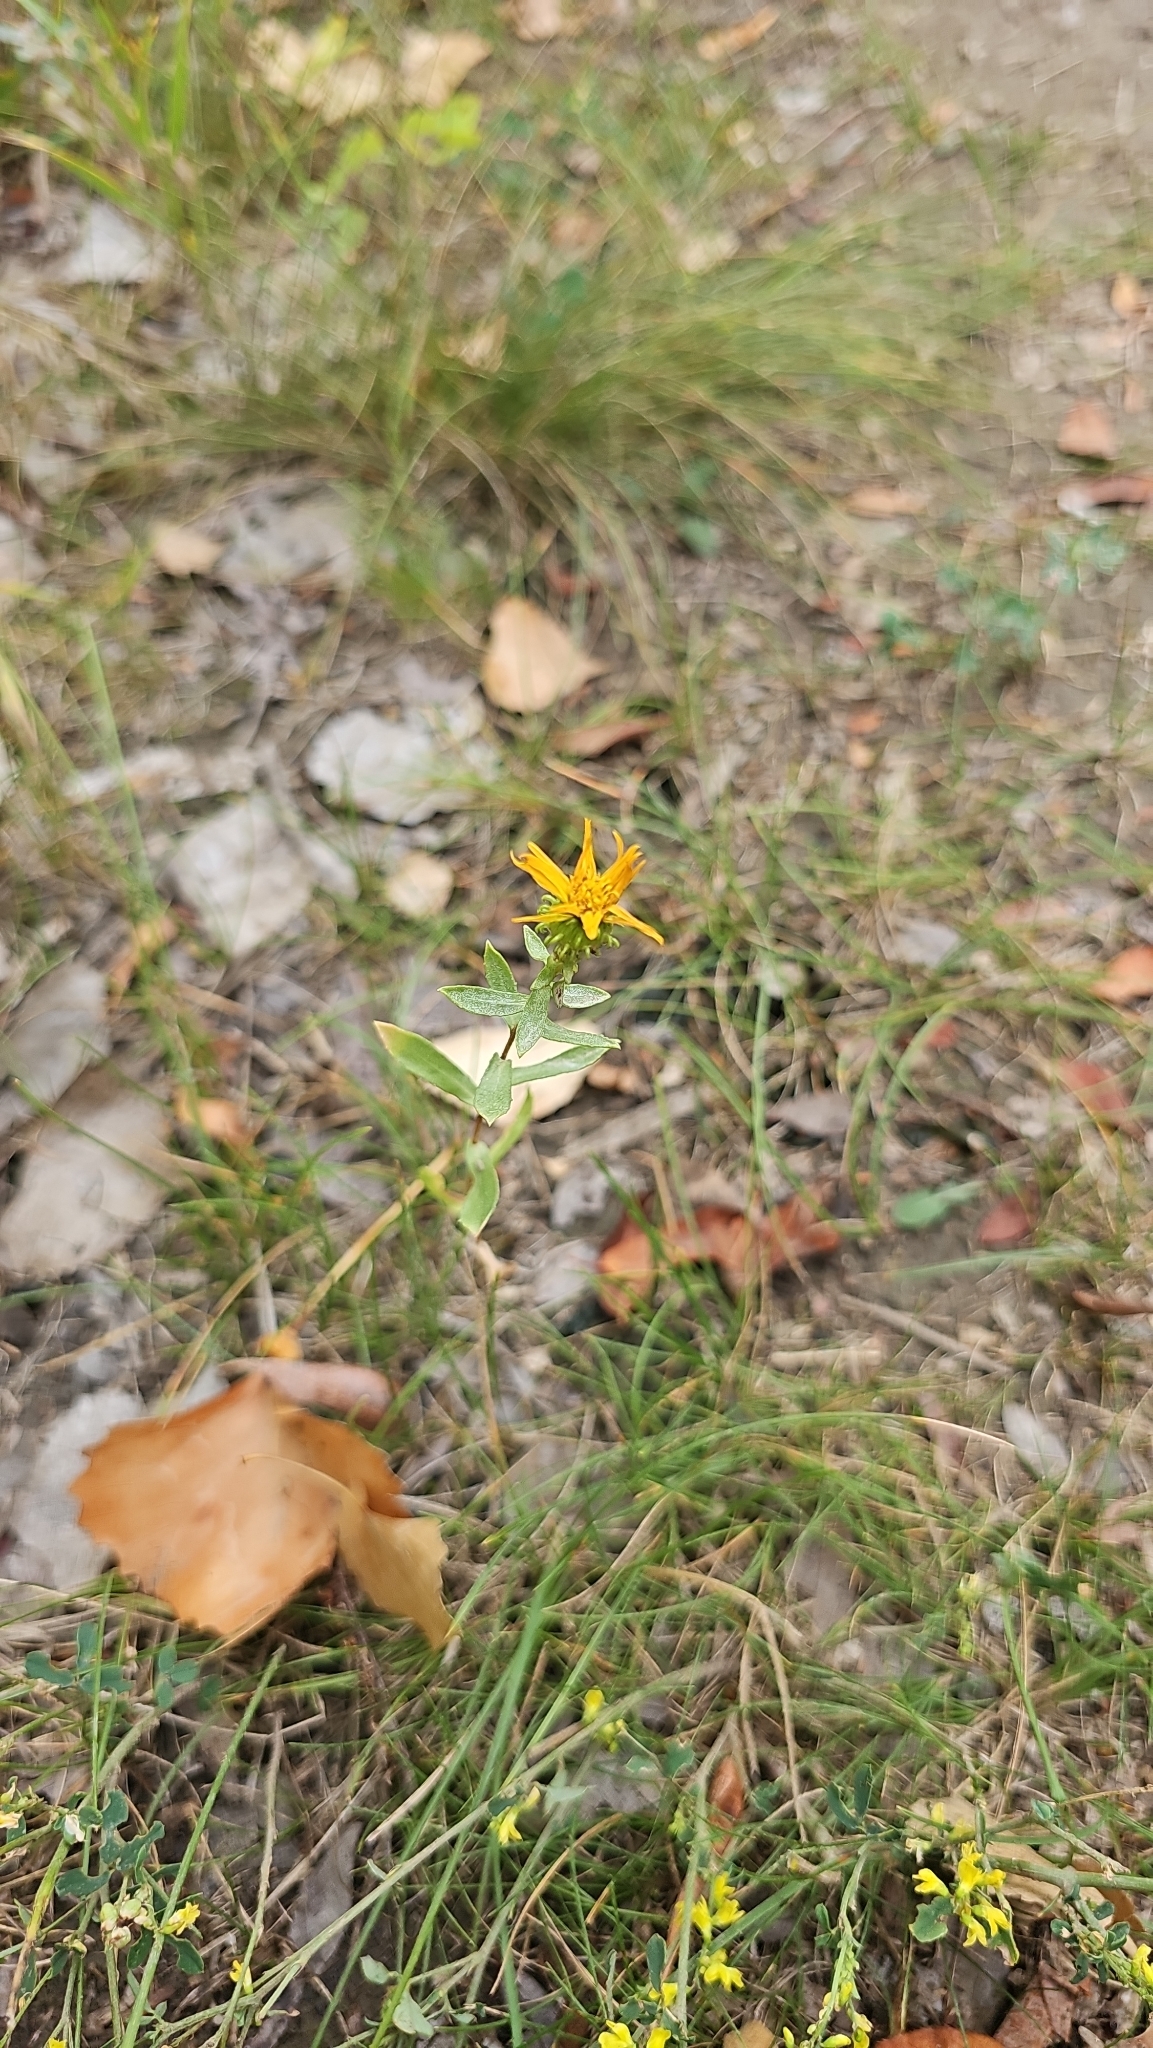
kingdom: Plantae
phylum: Tracheophyta
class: Magnoliopsida
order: Asterales
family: Asteraceae
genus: Grindelia
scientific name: Grindelia squarrosa
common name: Curly-cup gumweed
